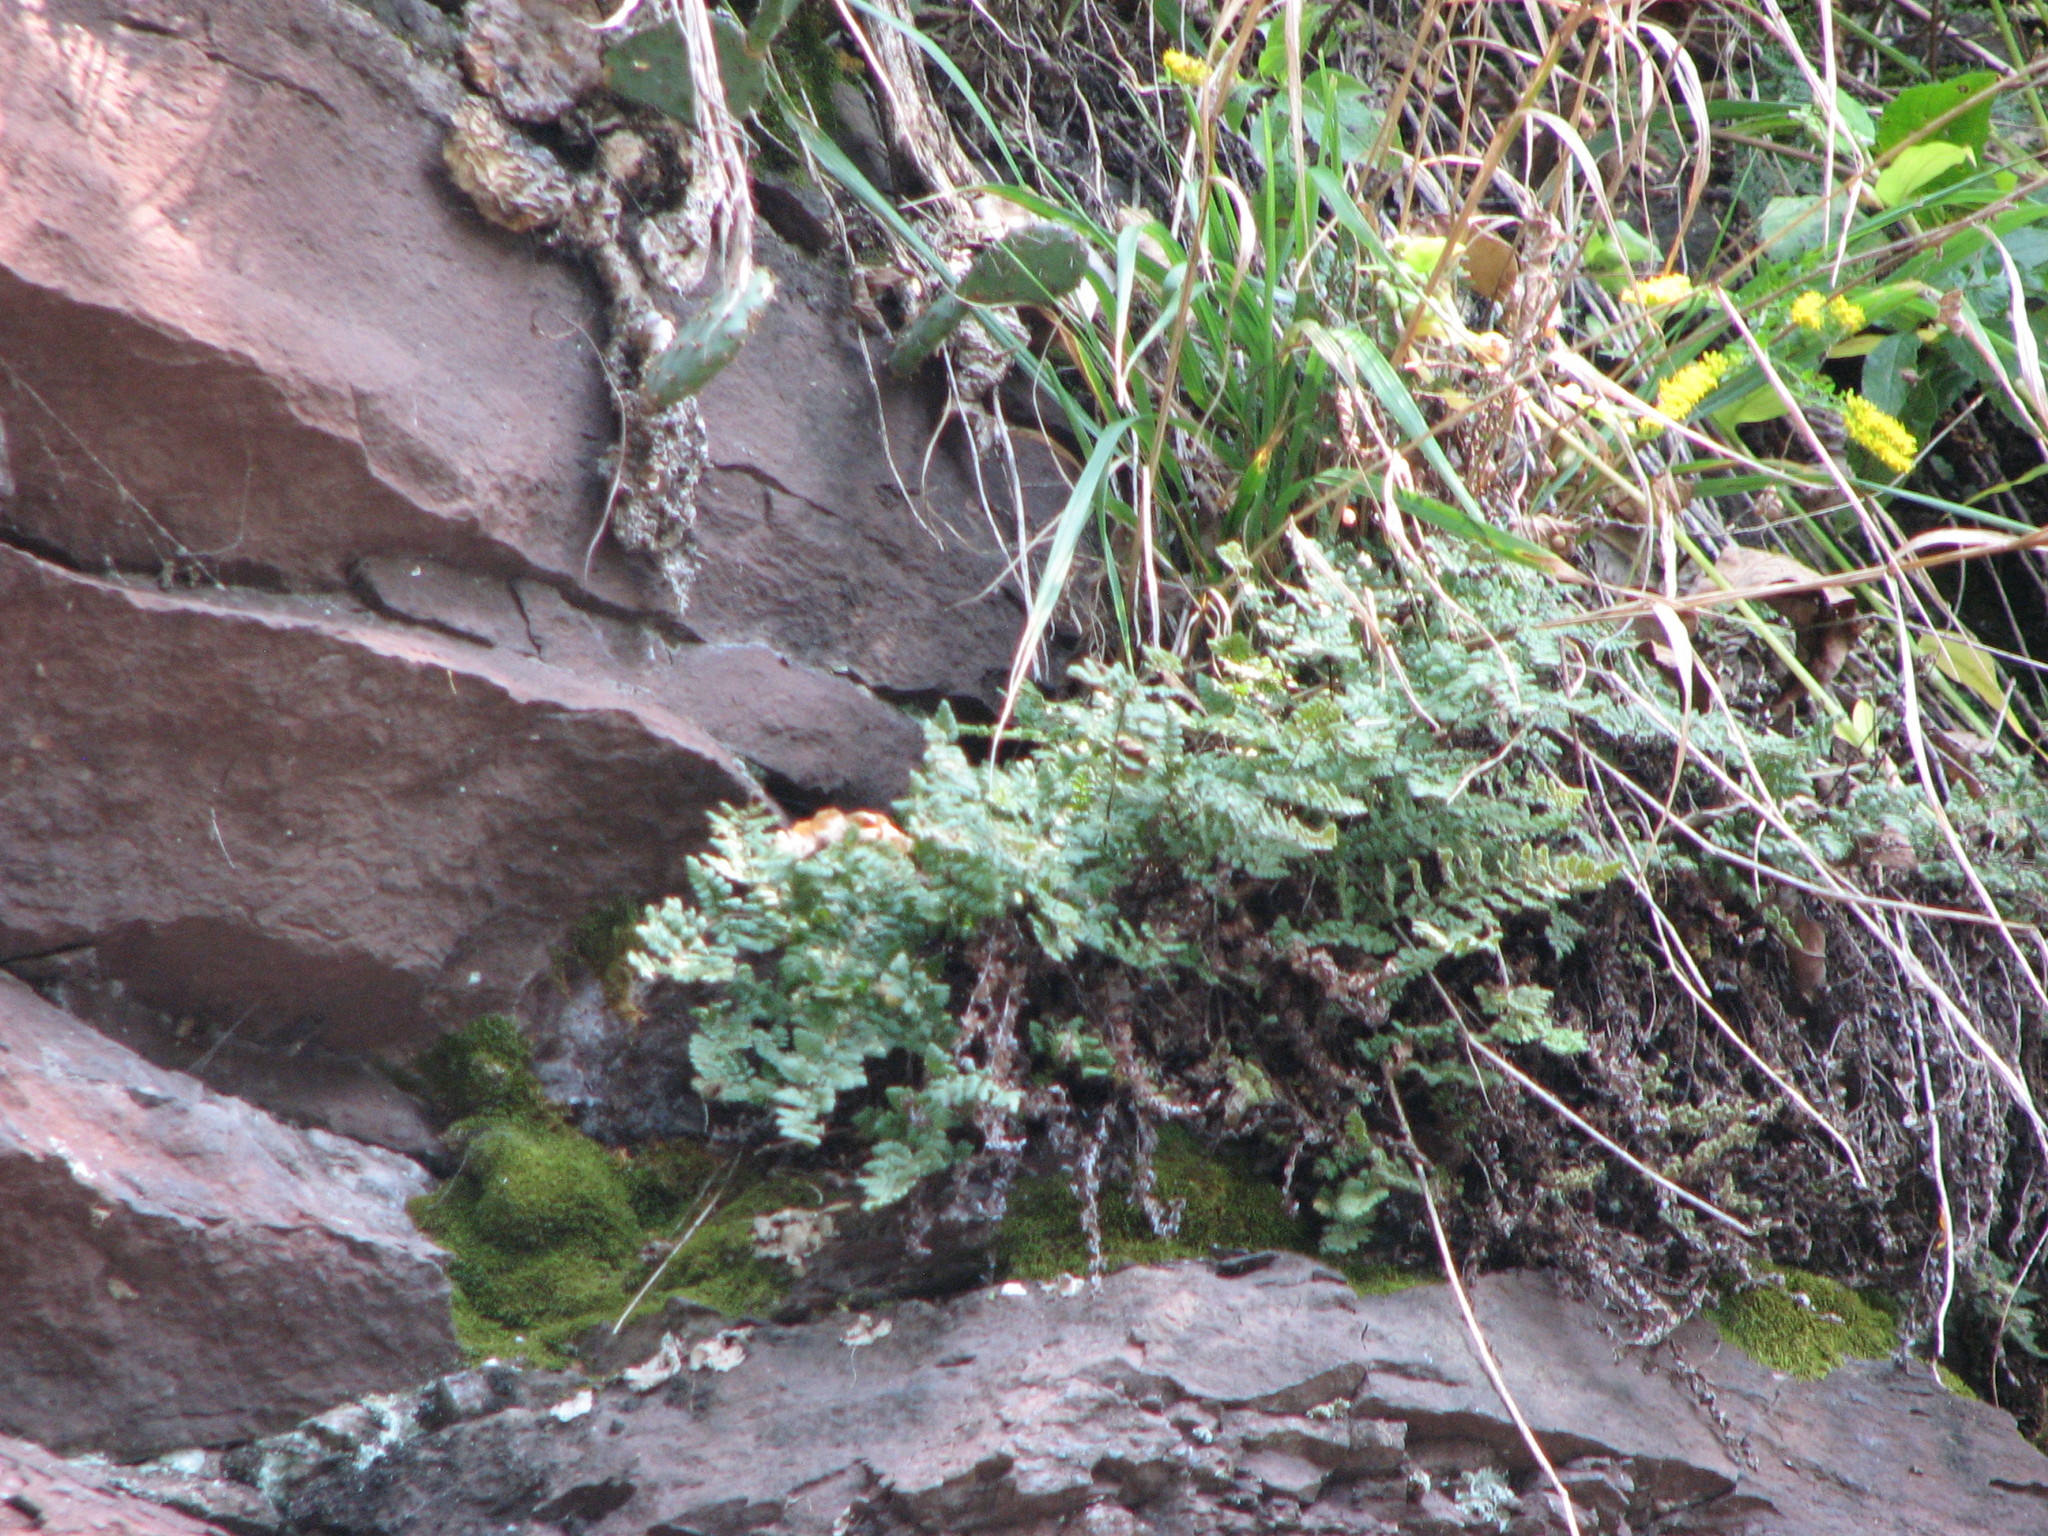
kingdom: Plantae
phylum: Tracheophyta
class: Polypodiopsida
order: Polypodiales
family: Pteridaceae
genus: Myriopteris
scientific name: Myriopteris lanosa
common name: Hairy lip fern
